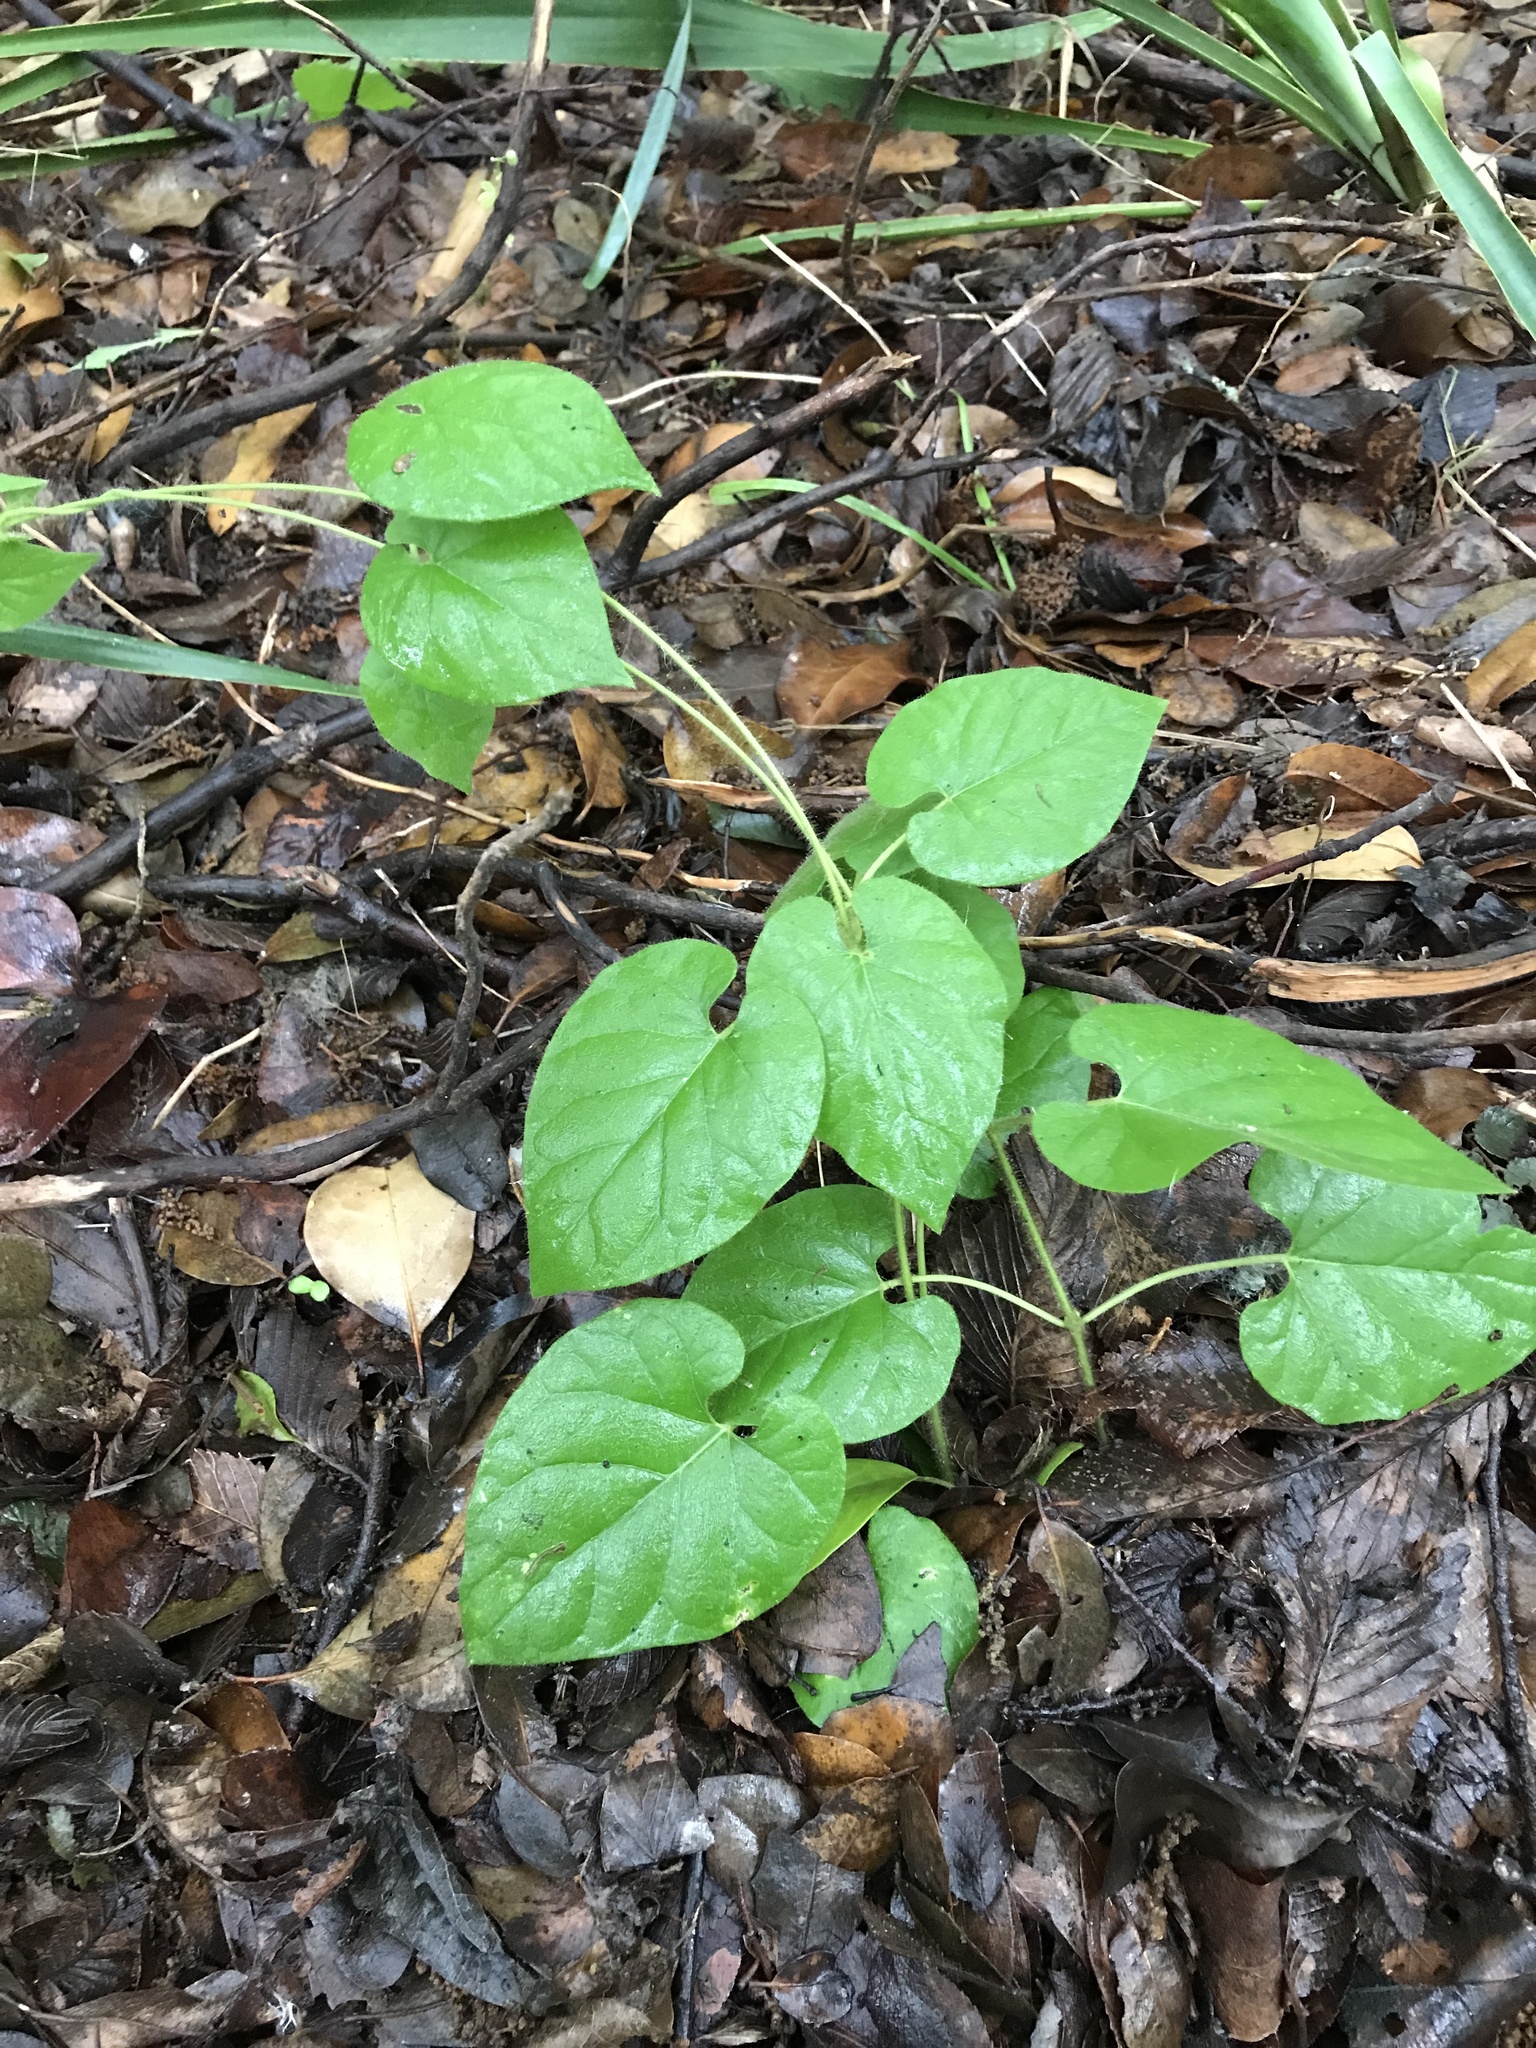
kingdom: Plantae
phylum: Tracheophyta
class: Magnoliopsida
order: Gentianales
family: Apocynaceae
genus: Dictyanthus
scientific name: Dictyanthus reticulatus
